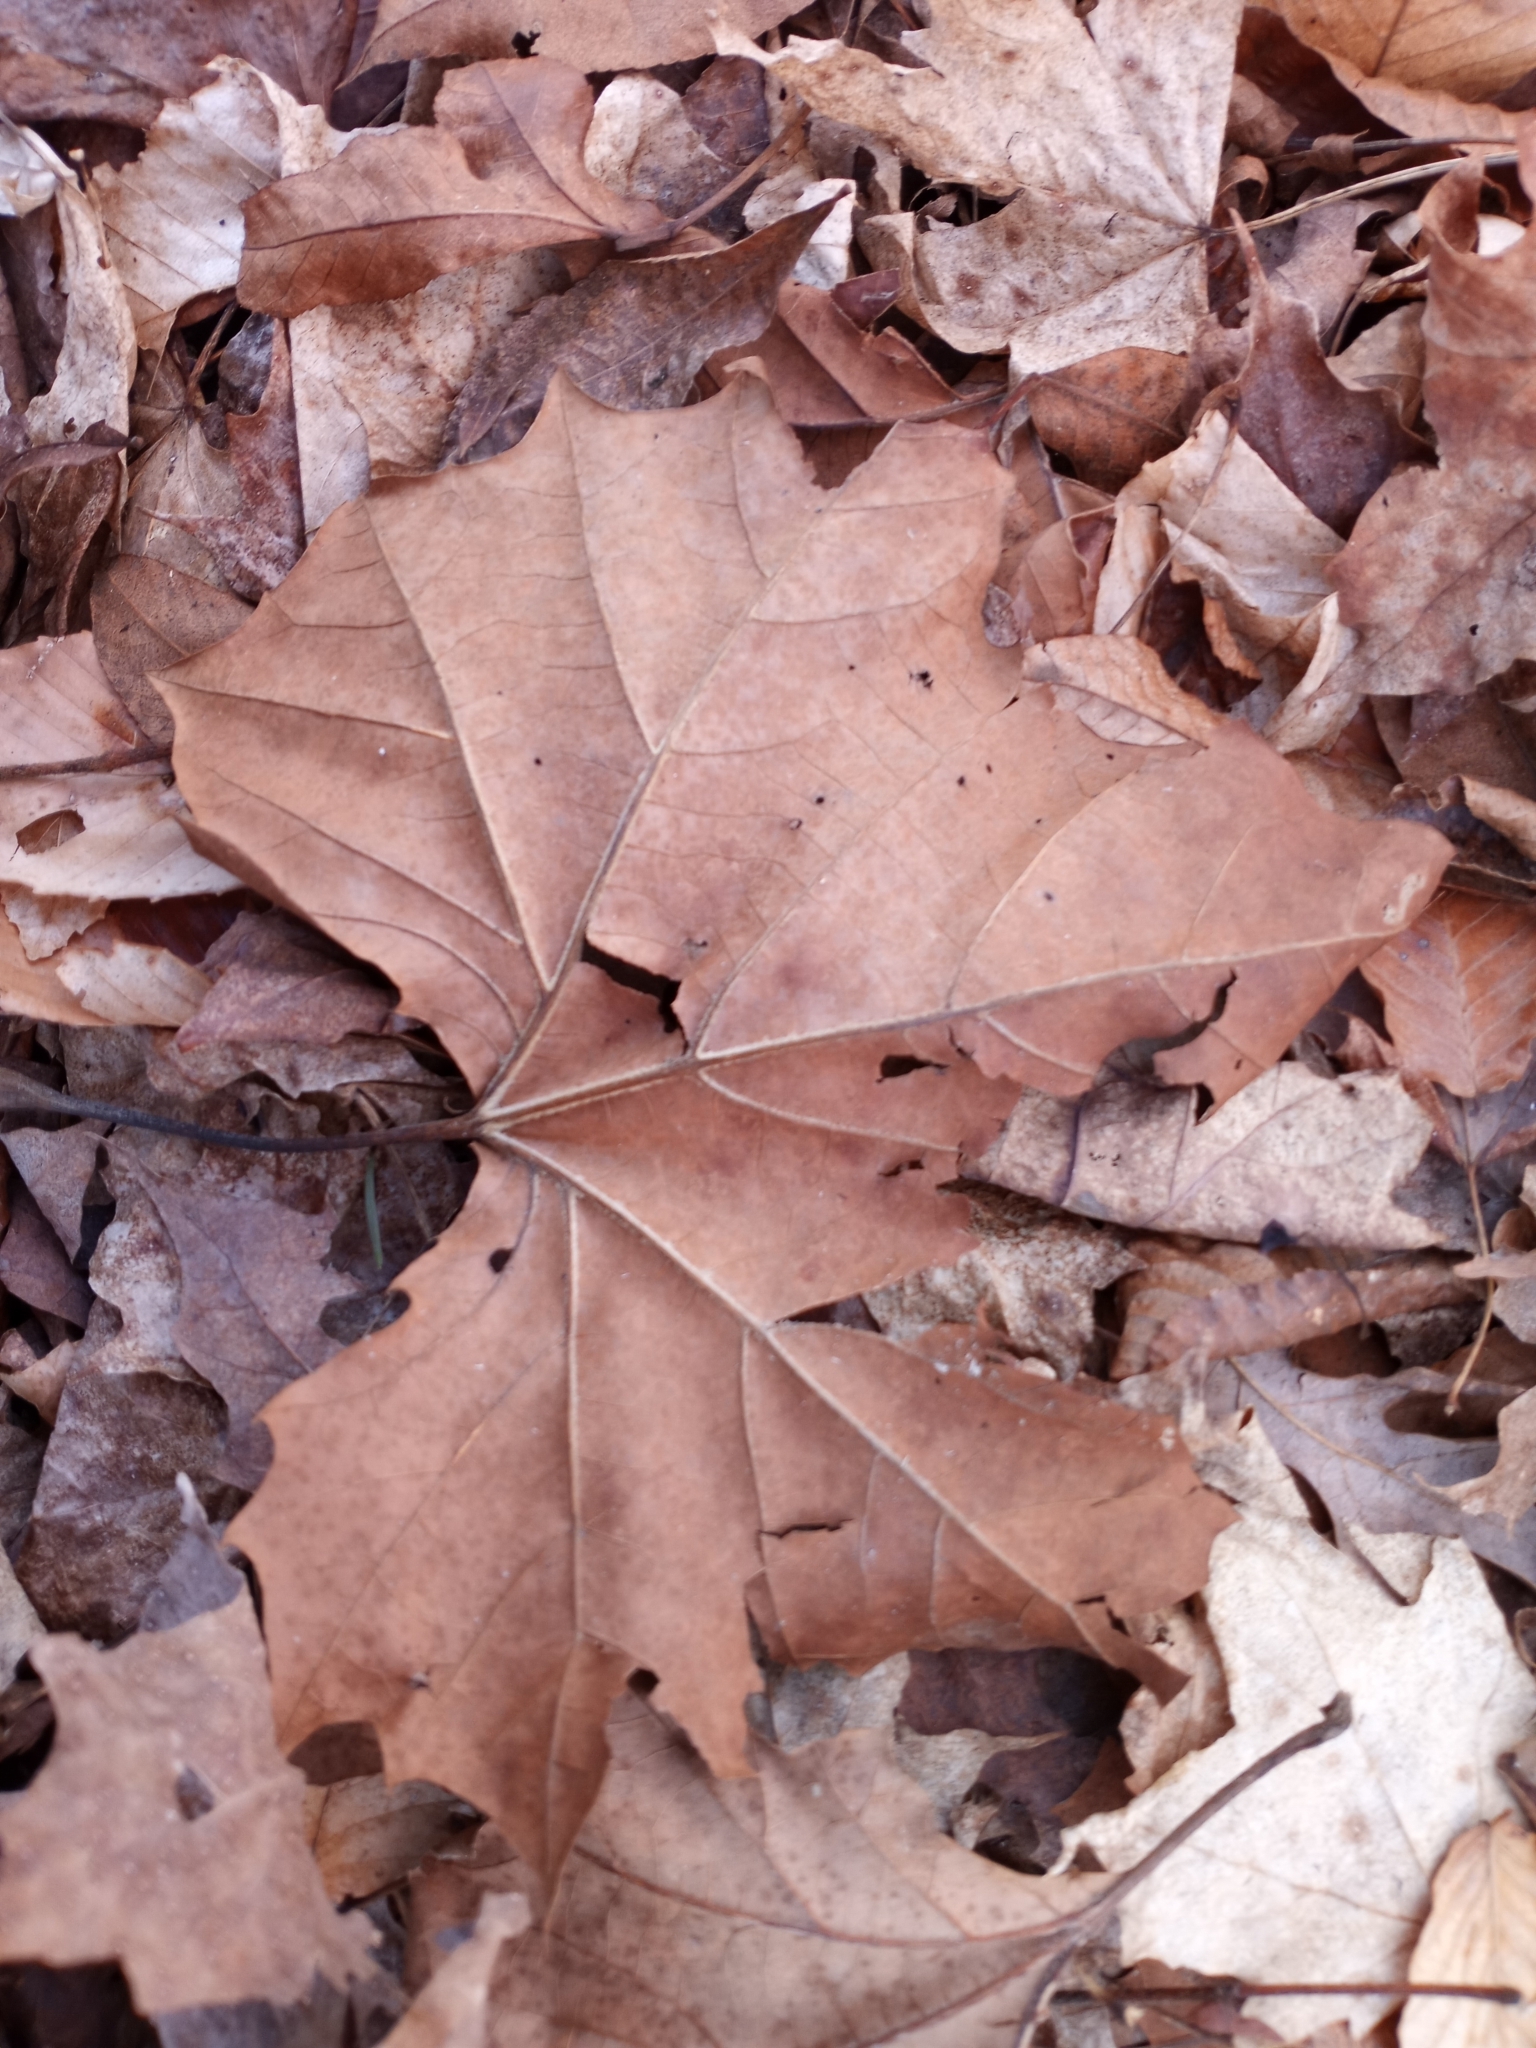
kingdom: Plantae
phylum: Tracheophyta
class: Magnoliopsida
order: Proteales
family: Platanaceae
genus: Platanus
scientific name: Platanus occidentalis
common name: American sycamore
